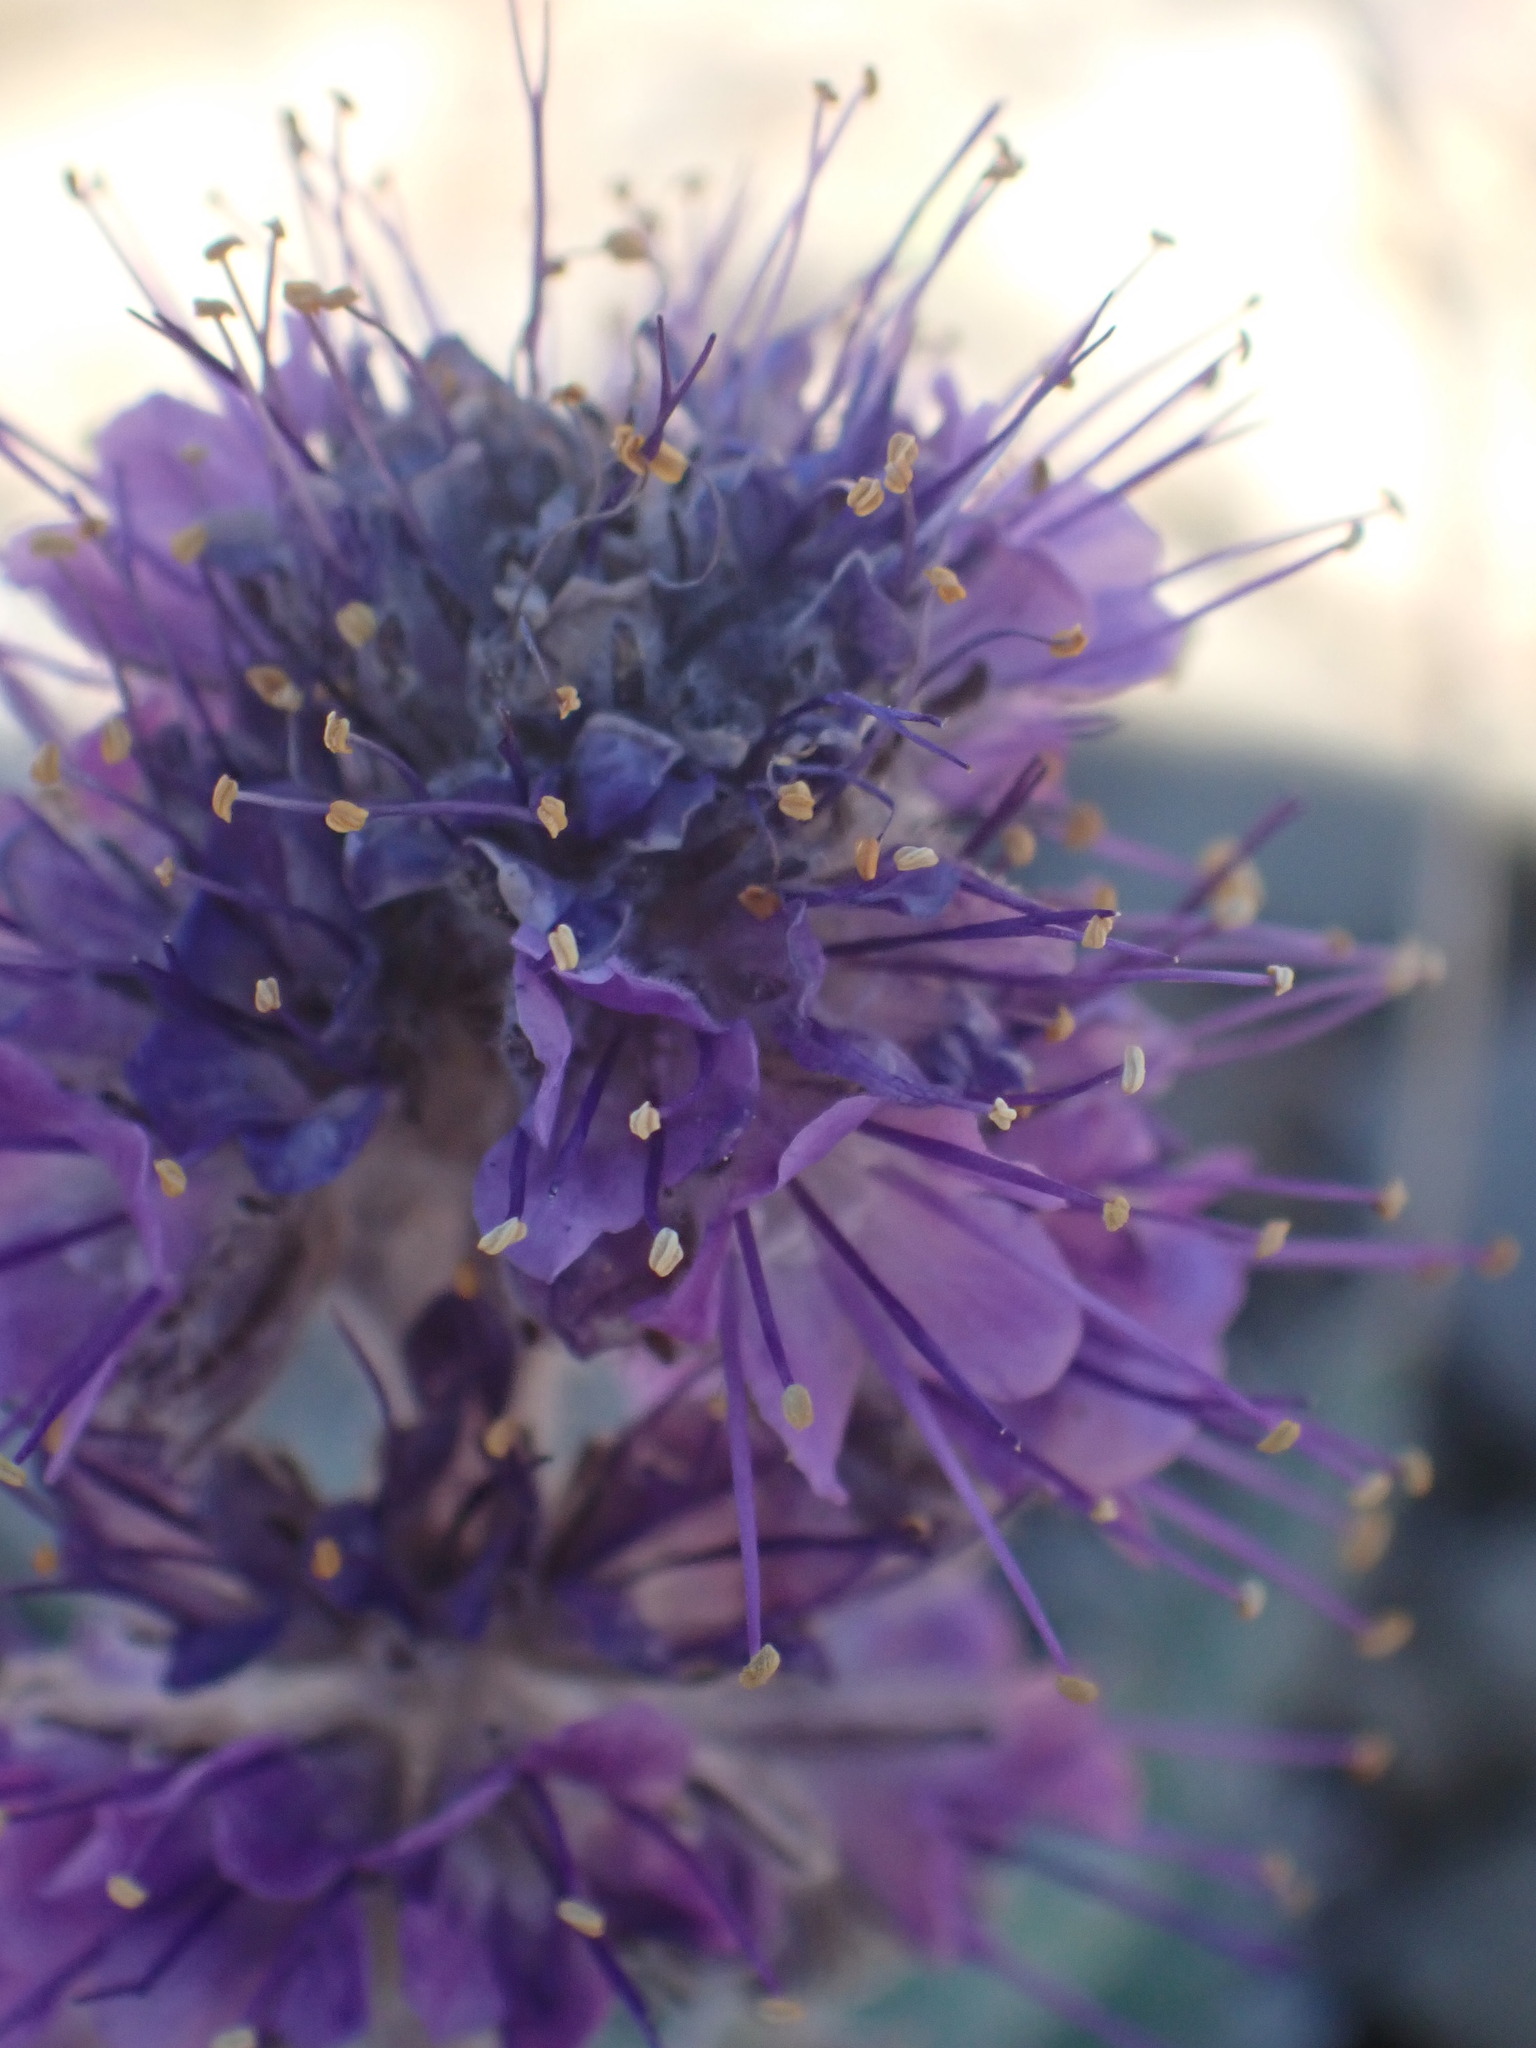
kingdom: Plantae
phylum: Tracheophyta
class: Magnoliopsida
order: Boraginales
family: Hydrophyllaceae
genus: Phacelia
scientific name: Phacelia sericea
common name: Silky phacelia
